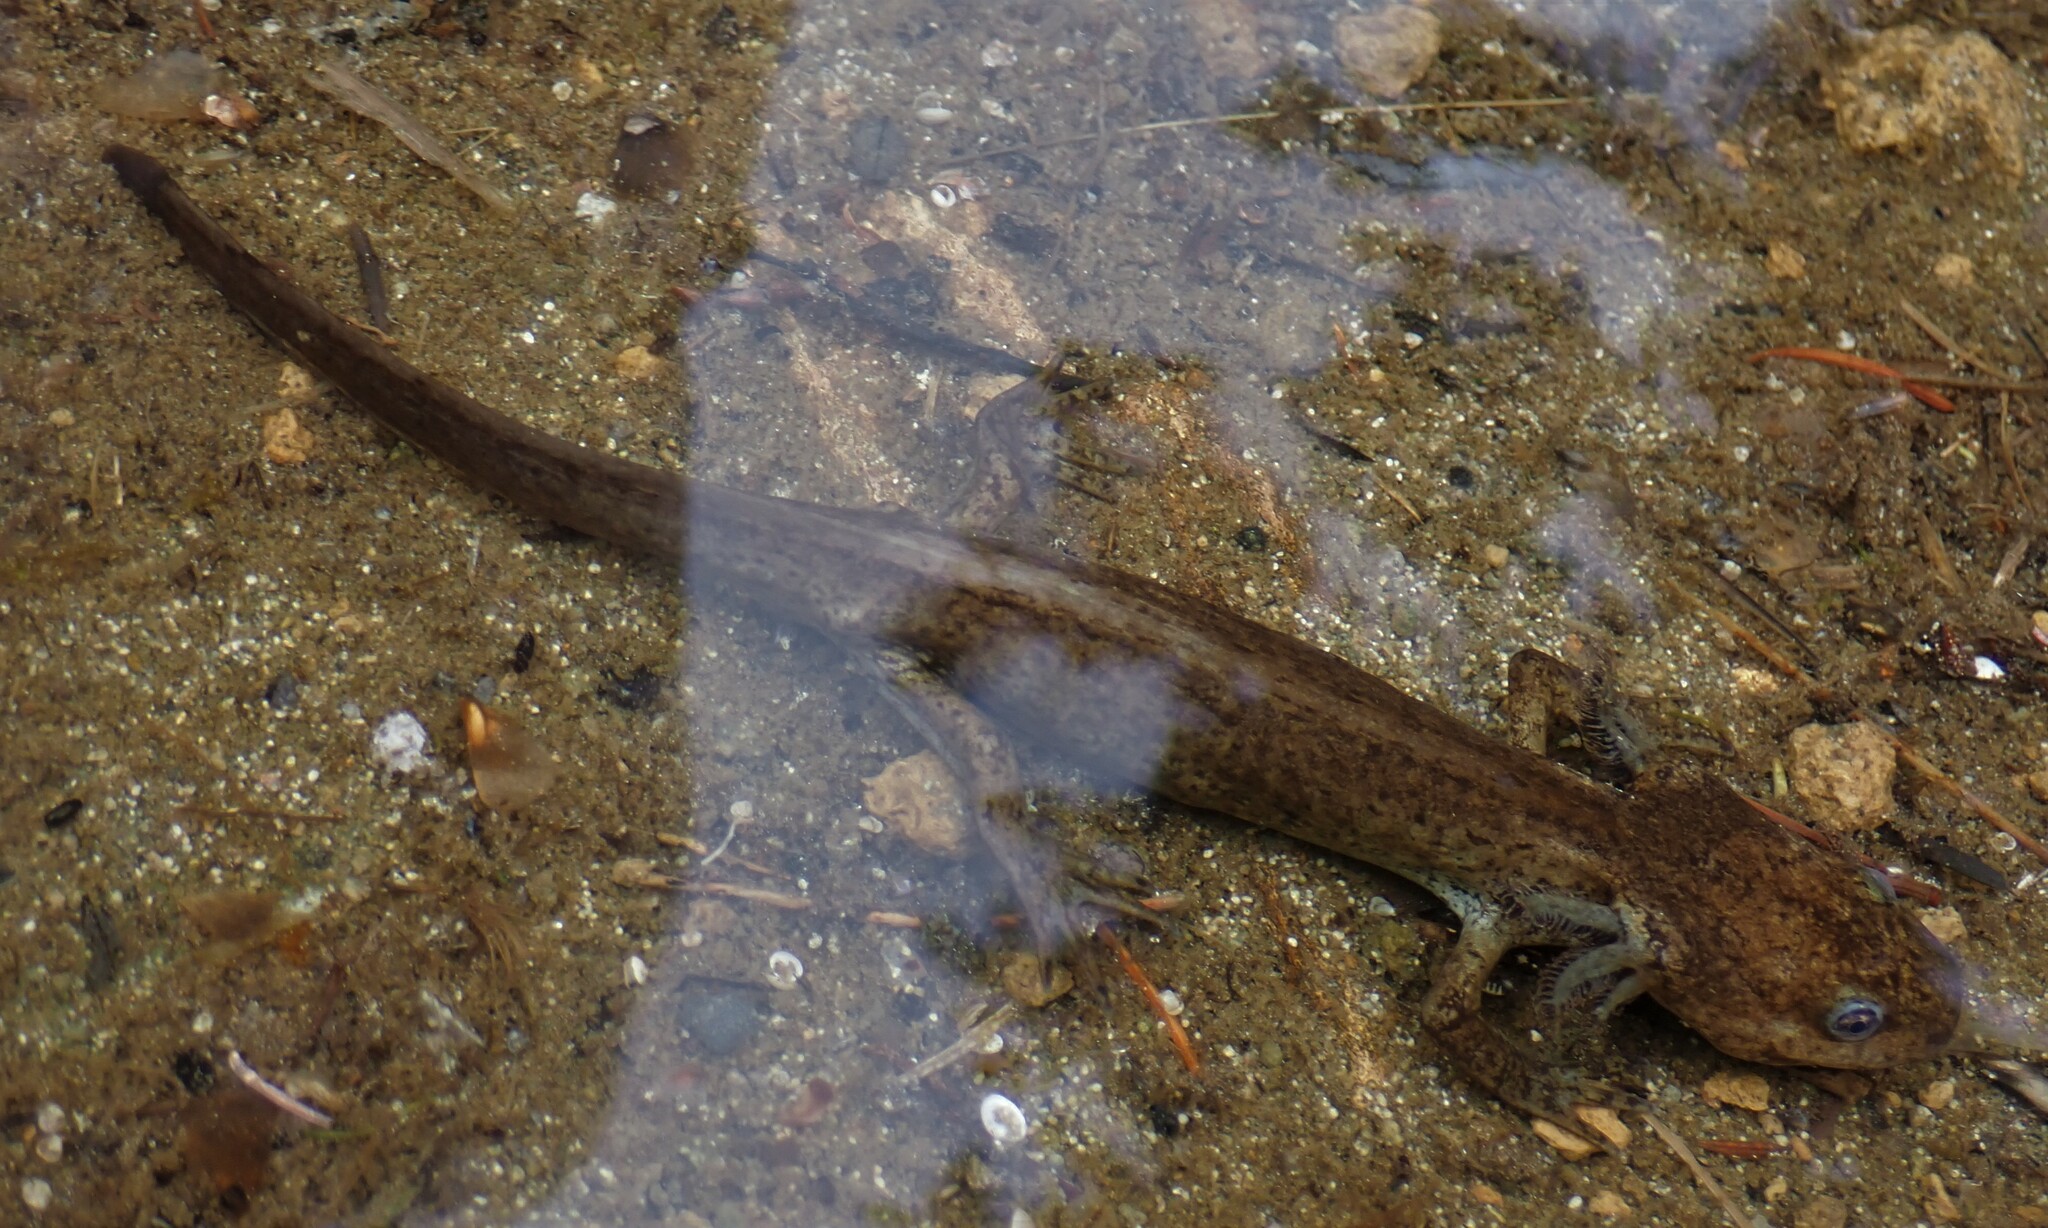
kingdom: Animalia
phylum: Chordata
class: Amphibia
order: Caudata
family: Ambystomatidae
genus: Ambystoma
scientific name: Ambystoma gracile
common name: Northwestern salamander
